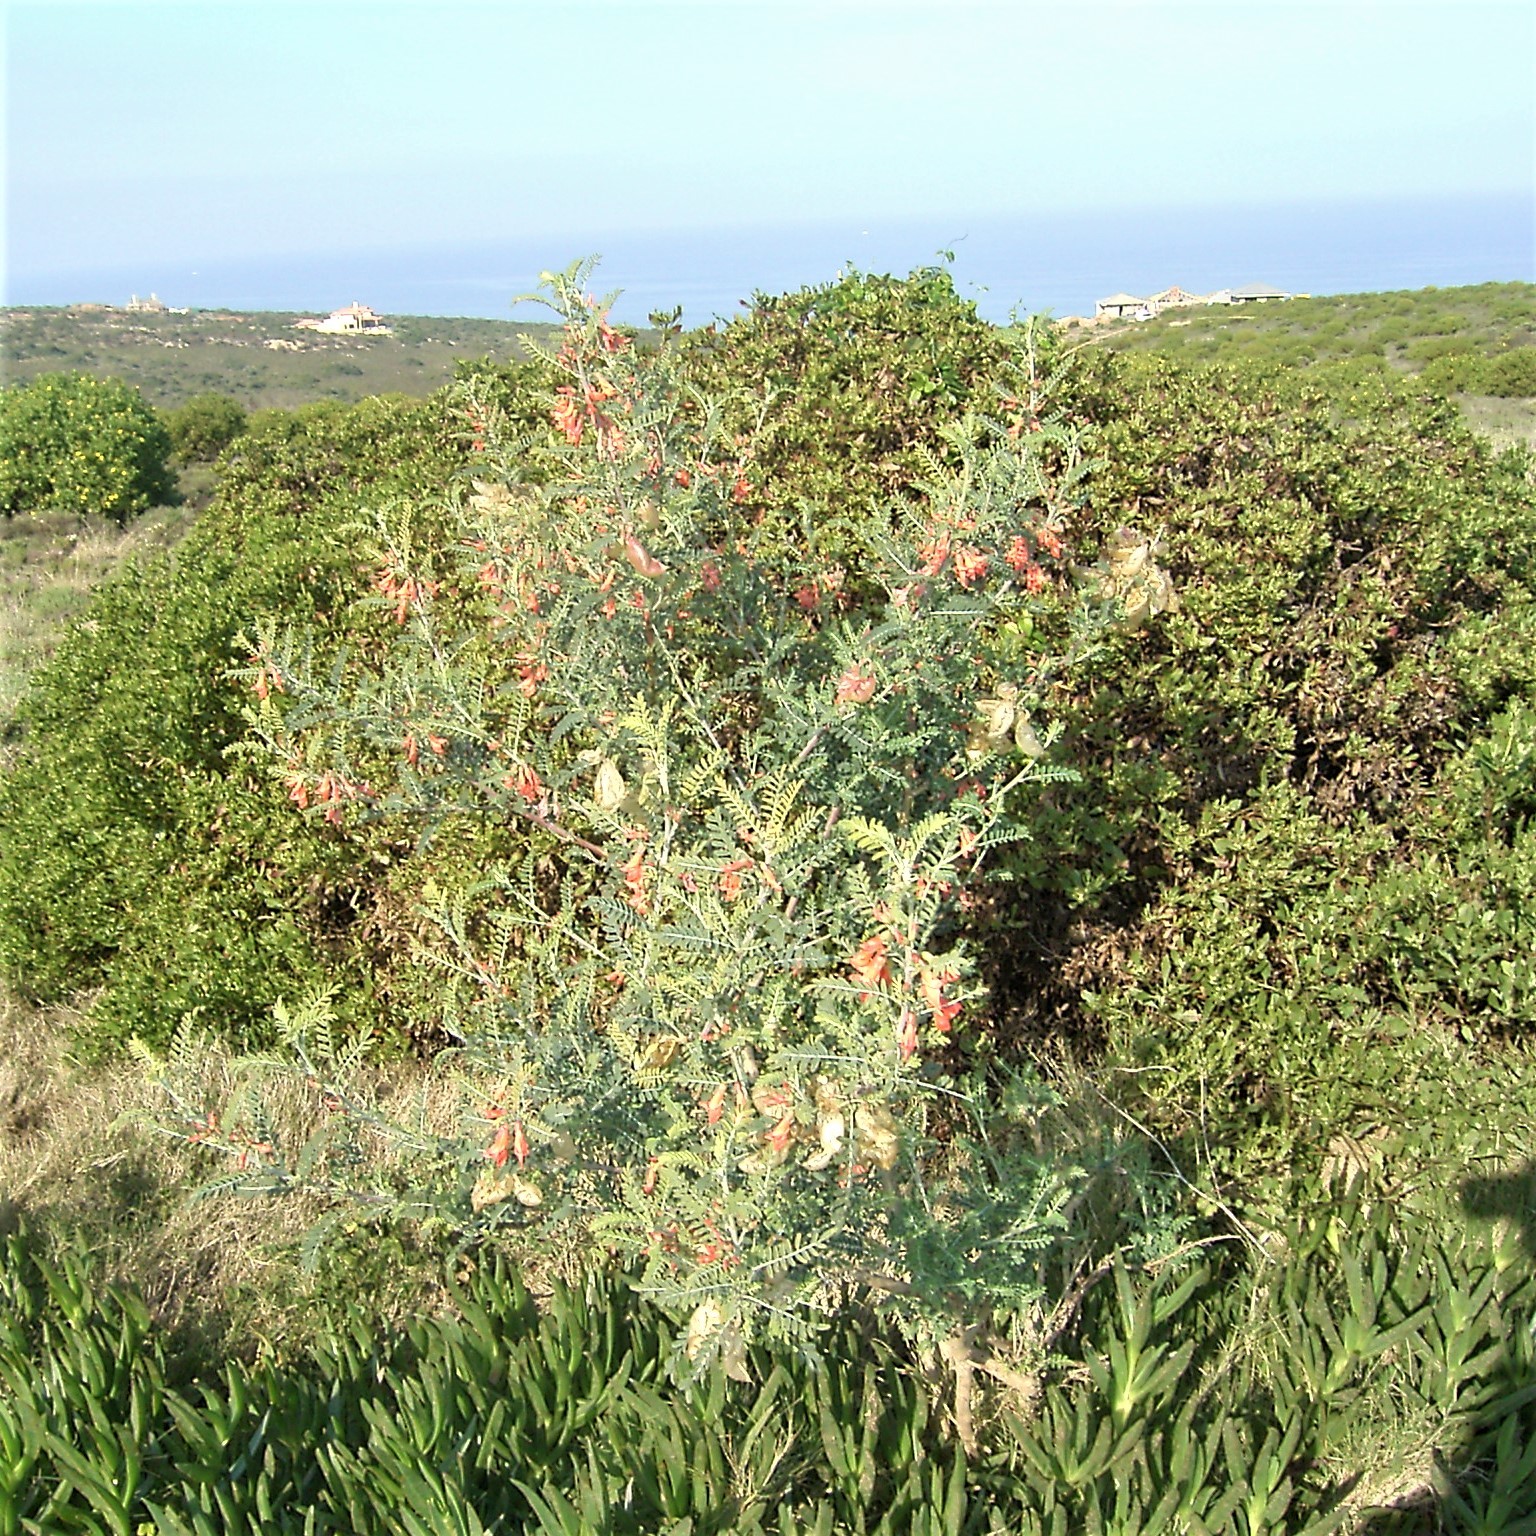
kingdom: Plantae
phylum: Tracheophyta
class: Magnoliopsida
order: Fabales
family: Fabaceae
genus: Lessertia
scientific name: Lessertia frutescens
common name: Balloon-pea
